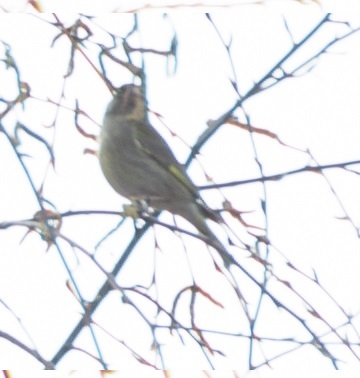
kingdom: Plantae
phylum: Tracheophyta
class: Liliopsida
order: Poales
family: Poaceae
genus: Chloris
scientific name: Chloris chloris
